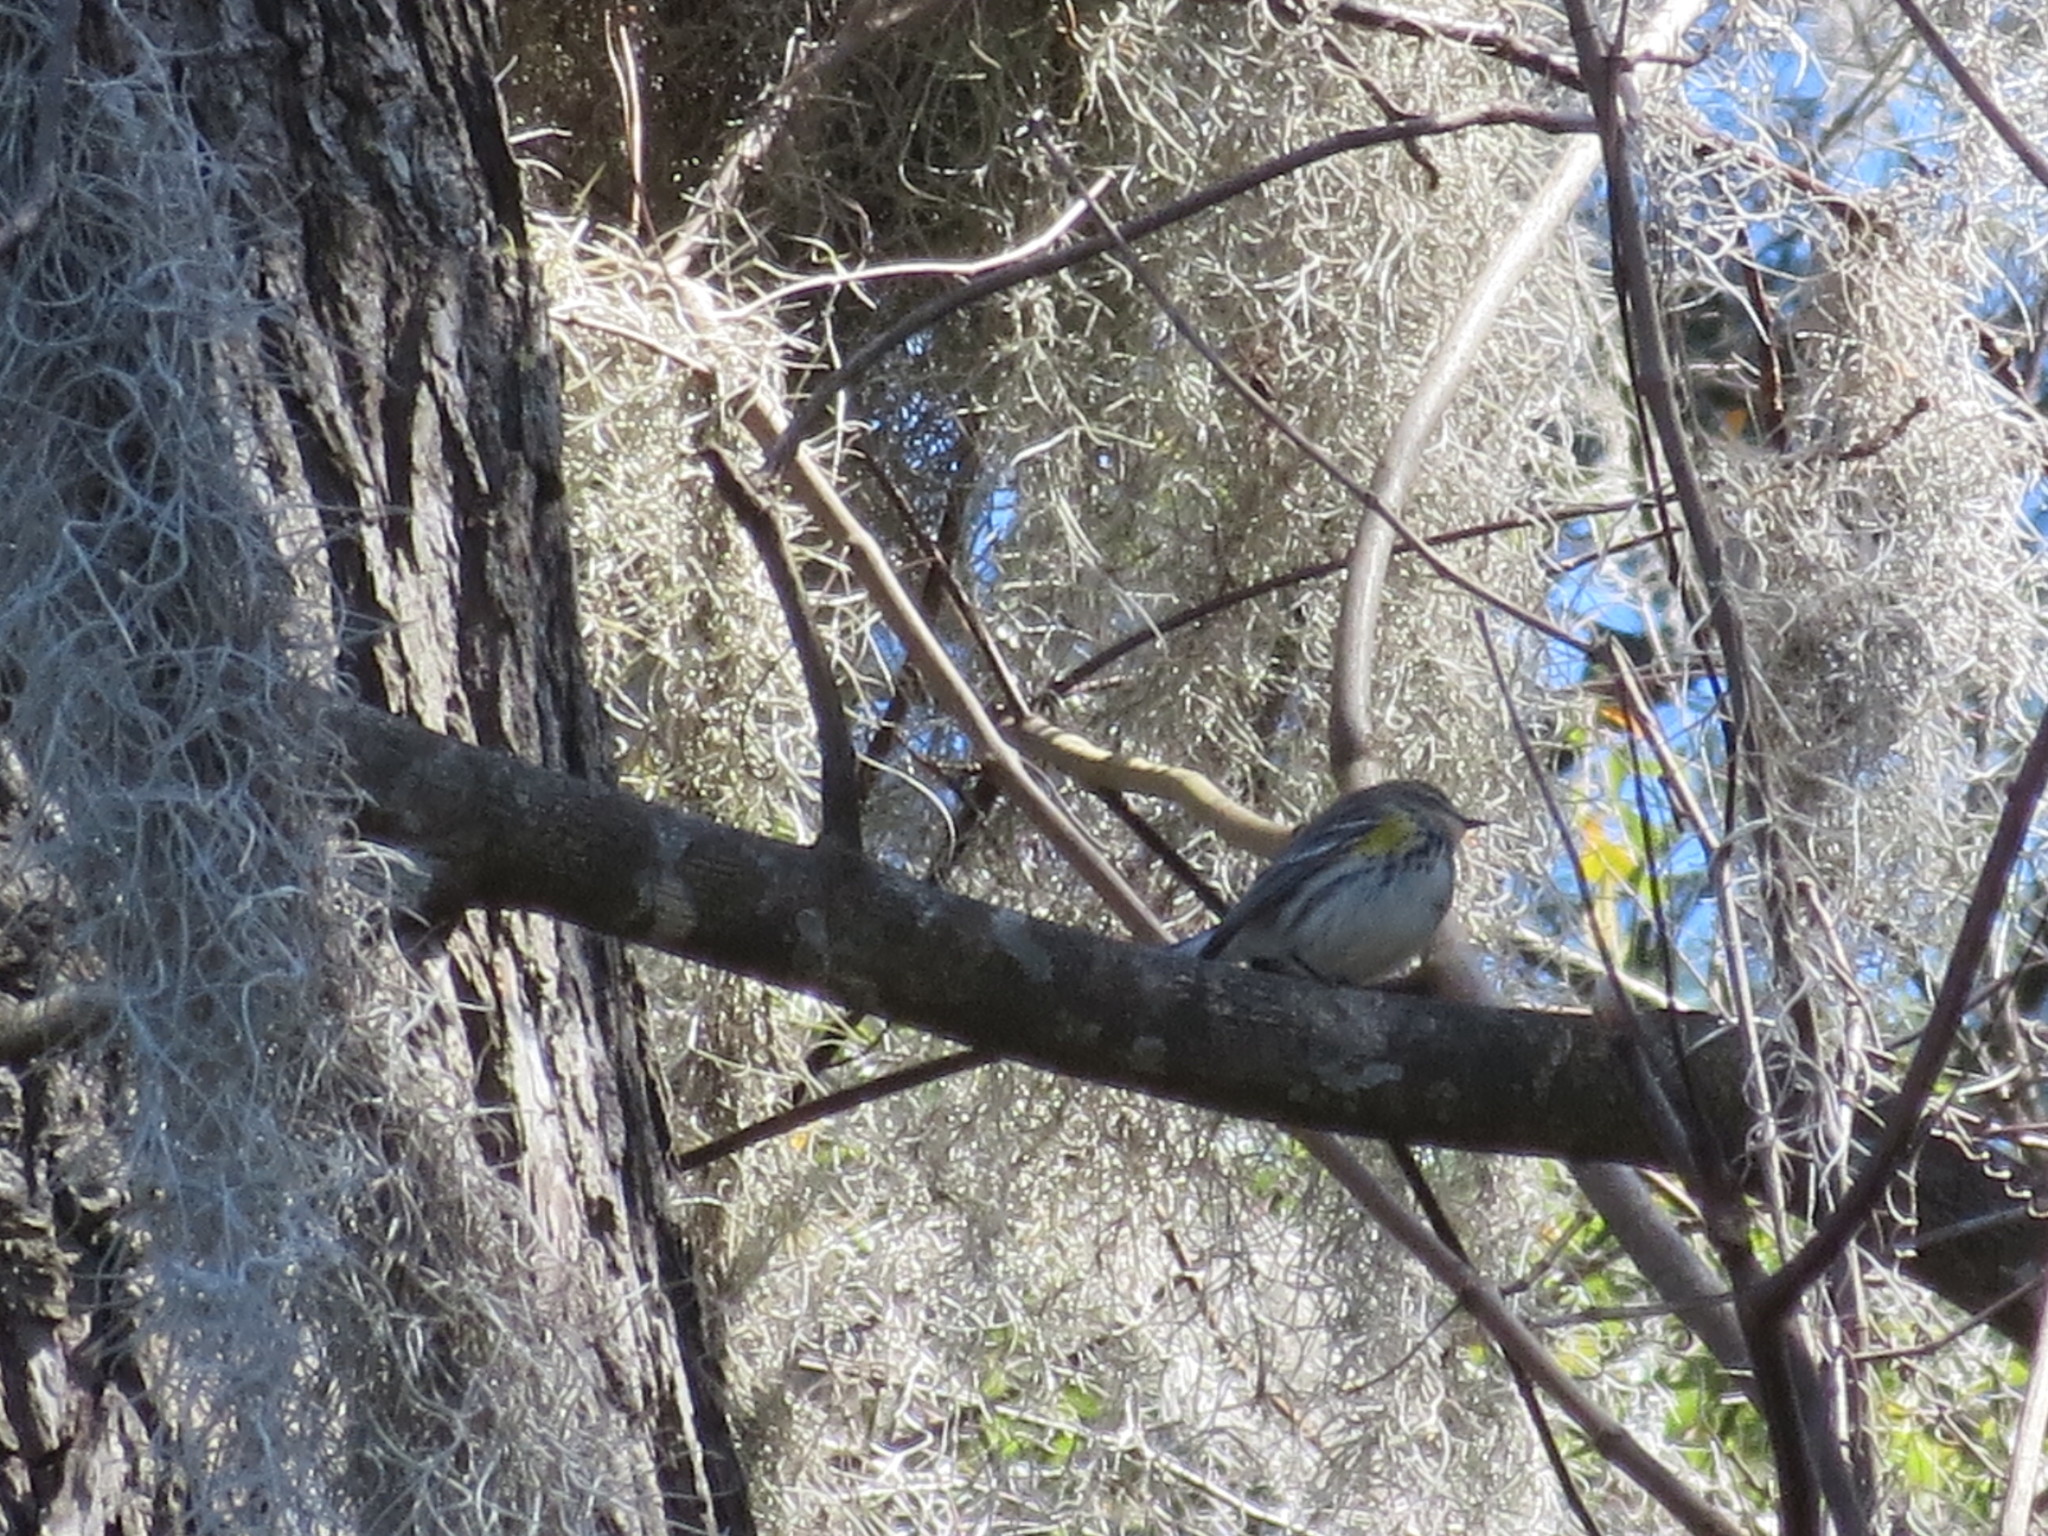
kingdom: Animalia
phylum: Chordata
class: Aves
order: Passeriformes
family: Parulidae
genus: Setophaga
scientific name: Setophaga coronata
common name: Myrtle warbler
